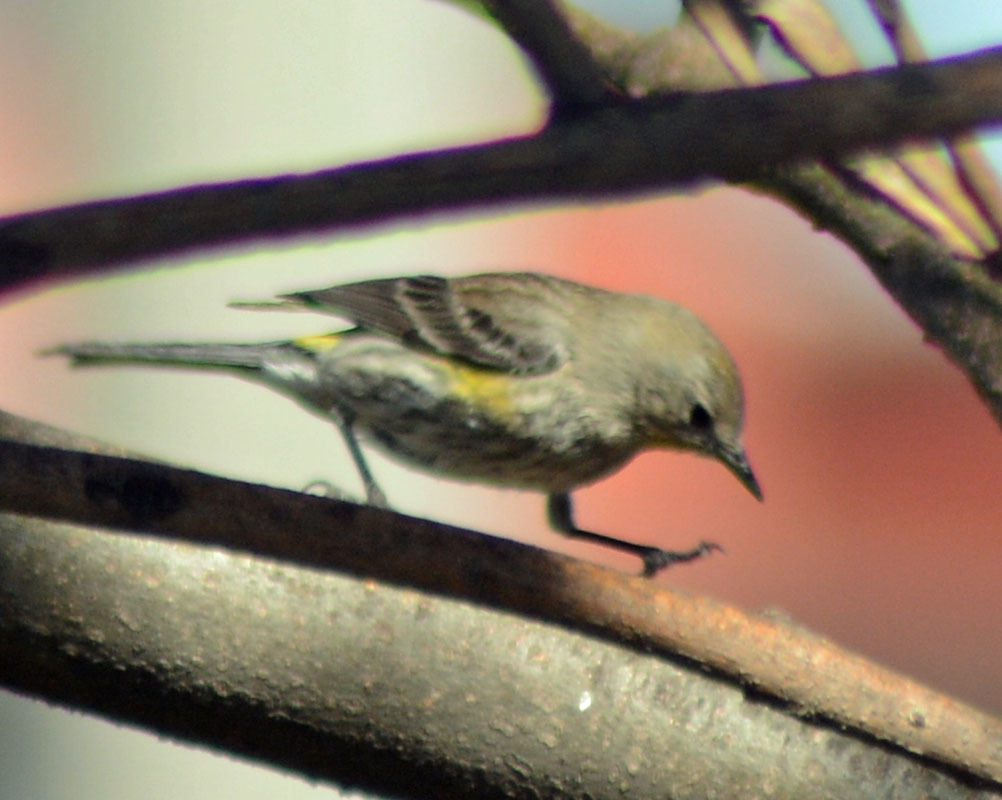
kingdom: Animalia
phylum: Chordata
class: Aves
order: Passeriformes
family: Parulidae
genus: Setophaga
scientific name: Setophaga coronata
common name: Myrtle warbler
